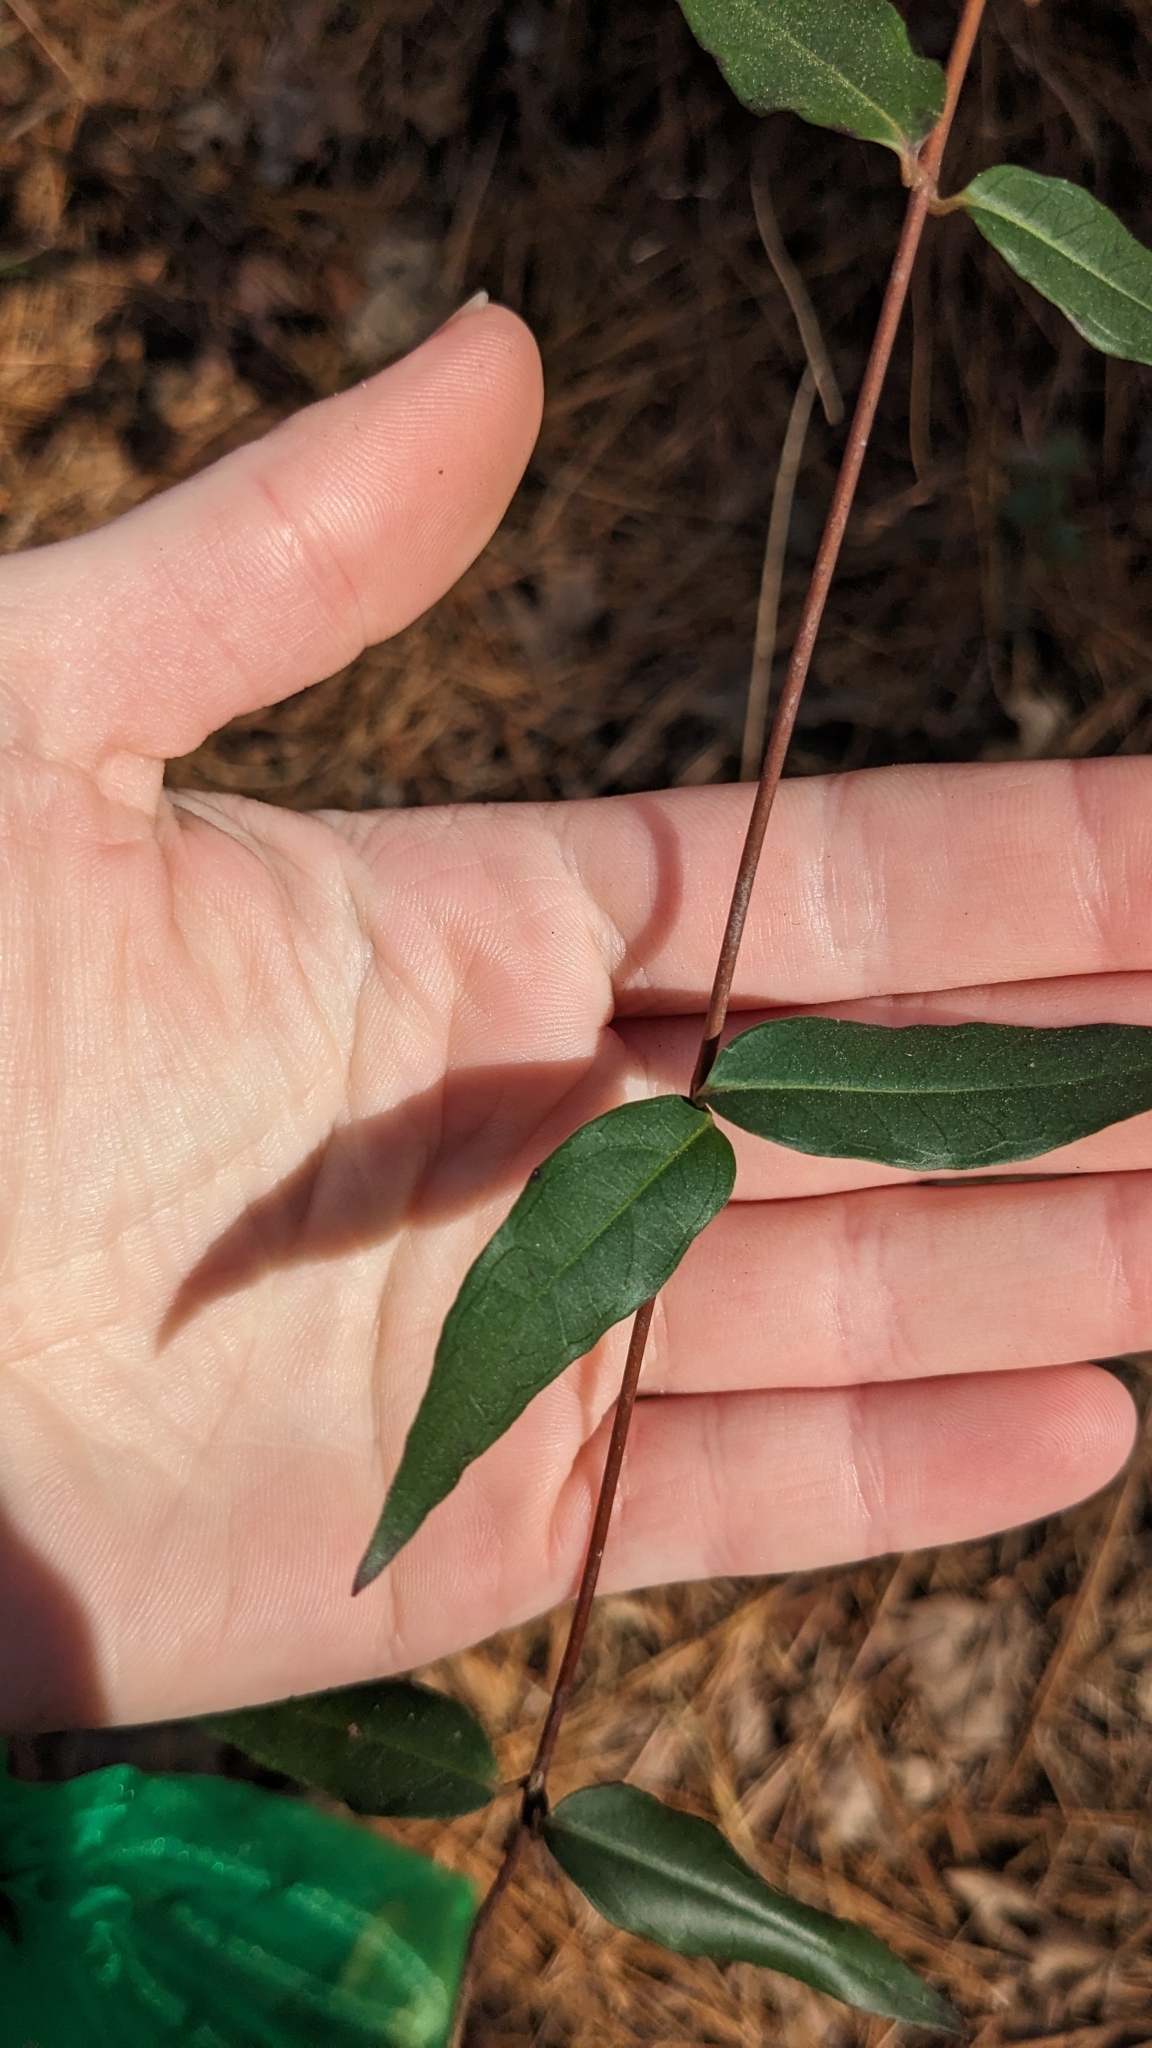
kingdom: Plantae
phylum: Tracheophyta
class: Magnoliopsida
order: Gentianales
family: Gelsemiaceae
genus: Gelsemium
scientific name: Gelsemium sempervirens
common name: Carolina-jasmine
